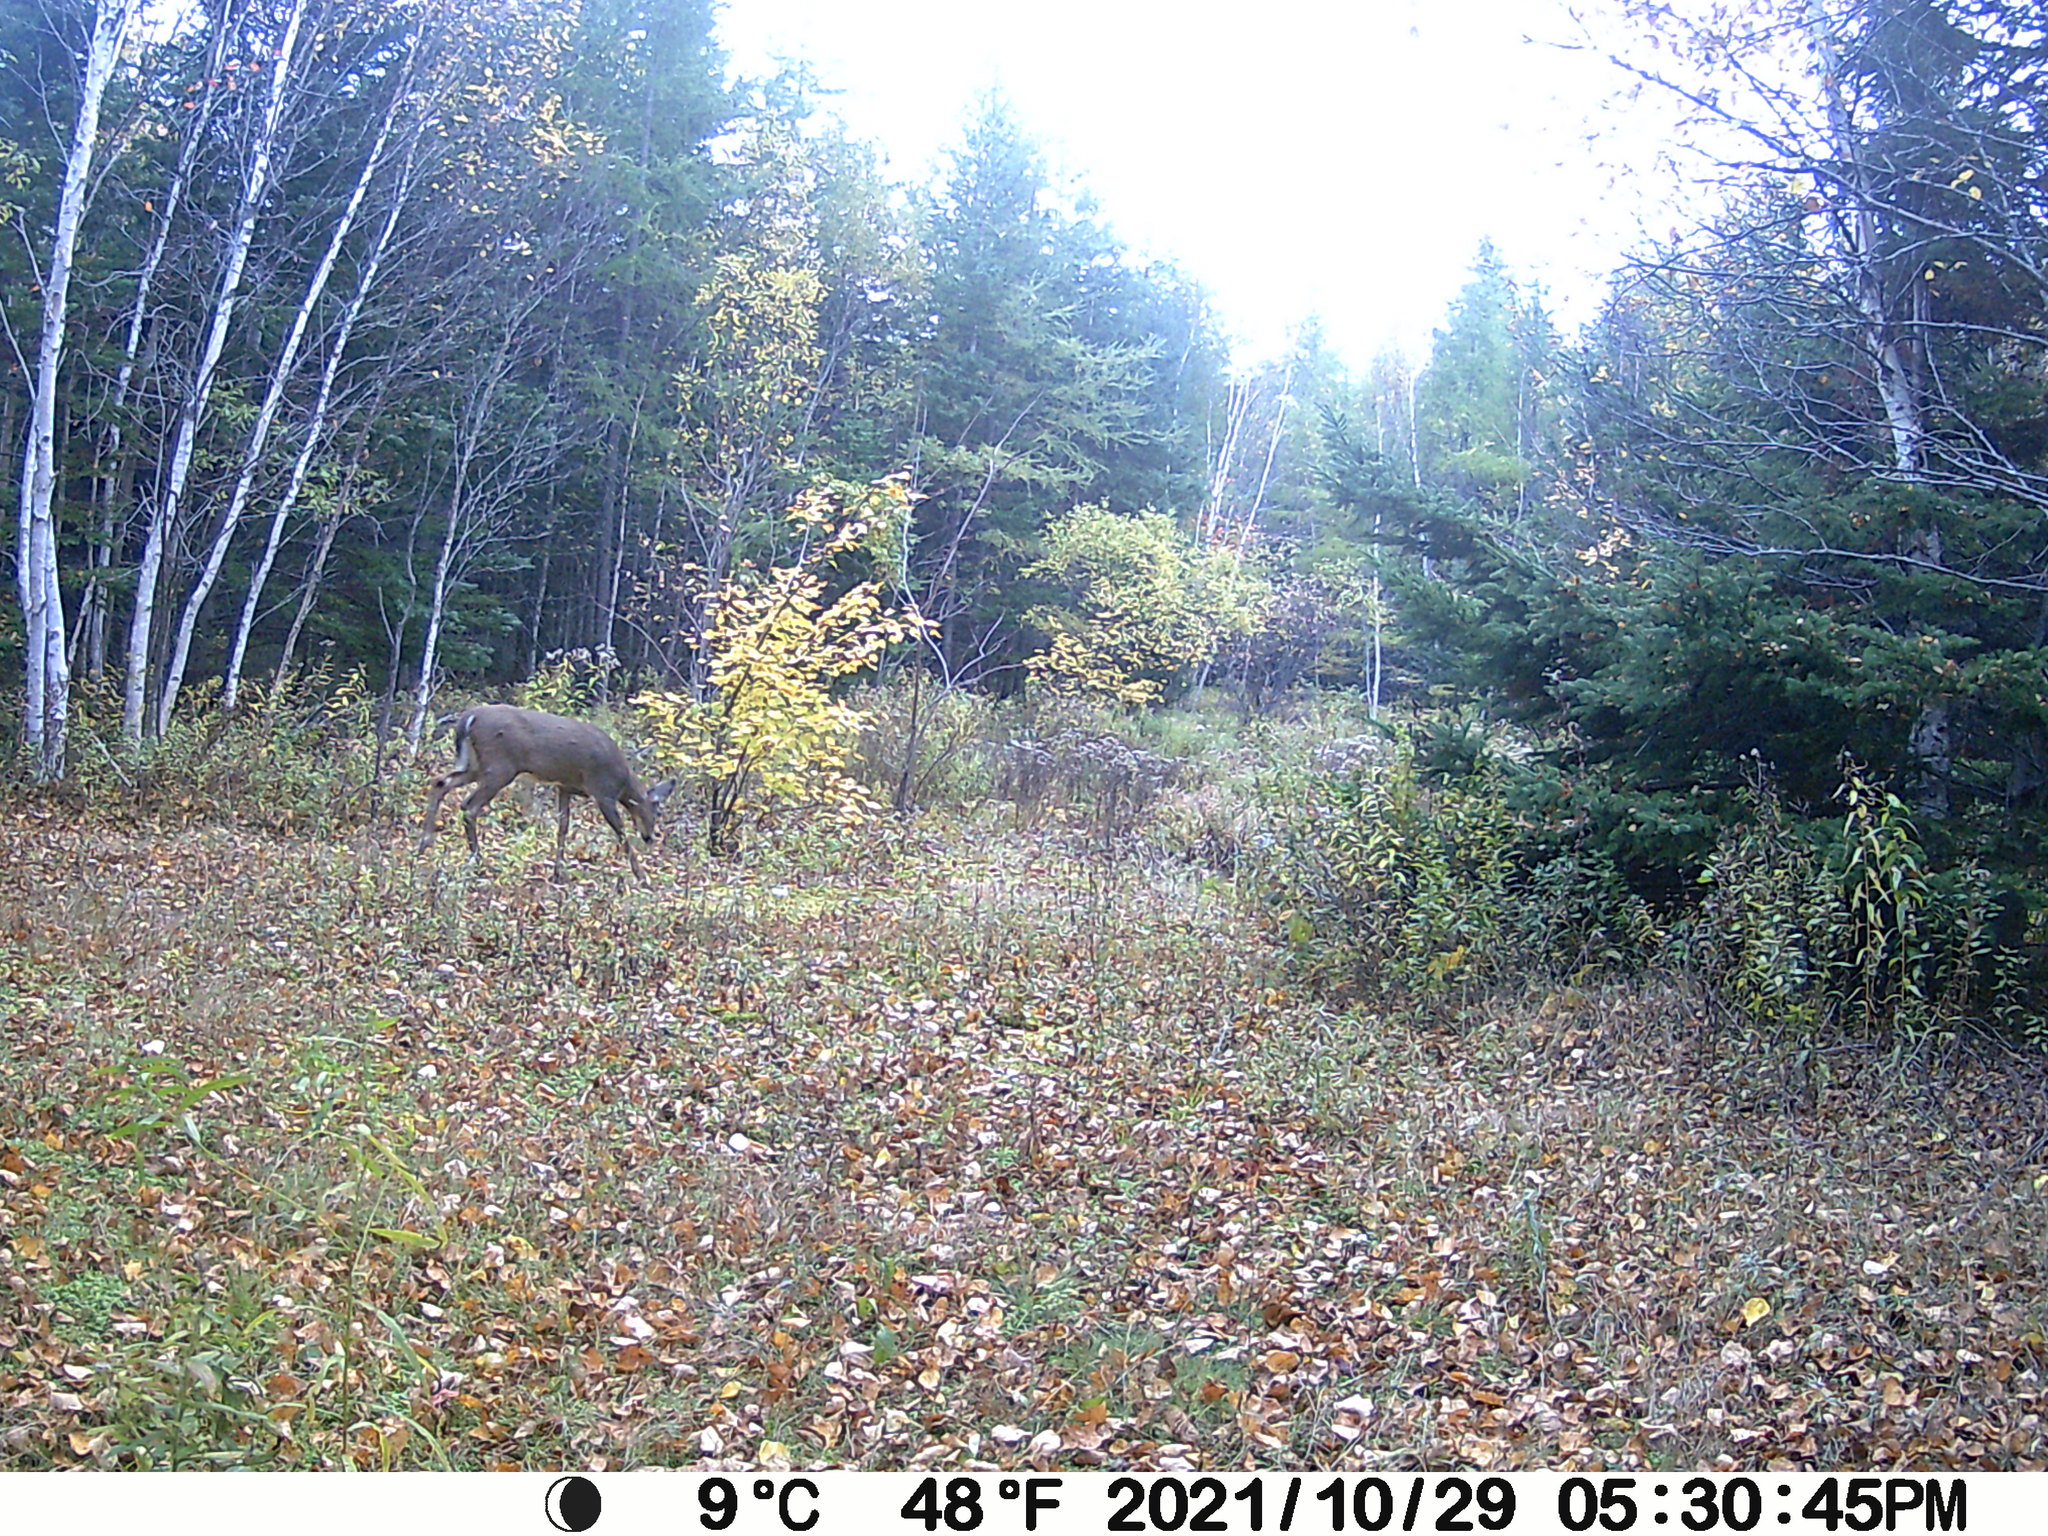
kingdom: Animalia
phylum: Chordata
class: Mammalia
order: Artiodactyla
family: Cervidae
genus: Odocoileus
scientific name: Odocoileus virginianus
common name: White-tailed deer
